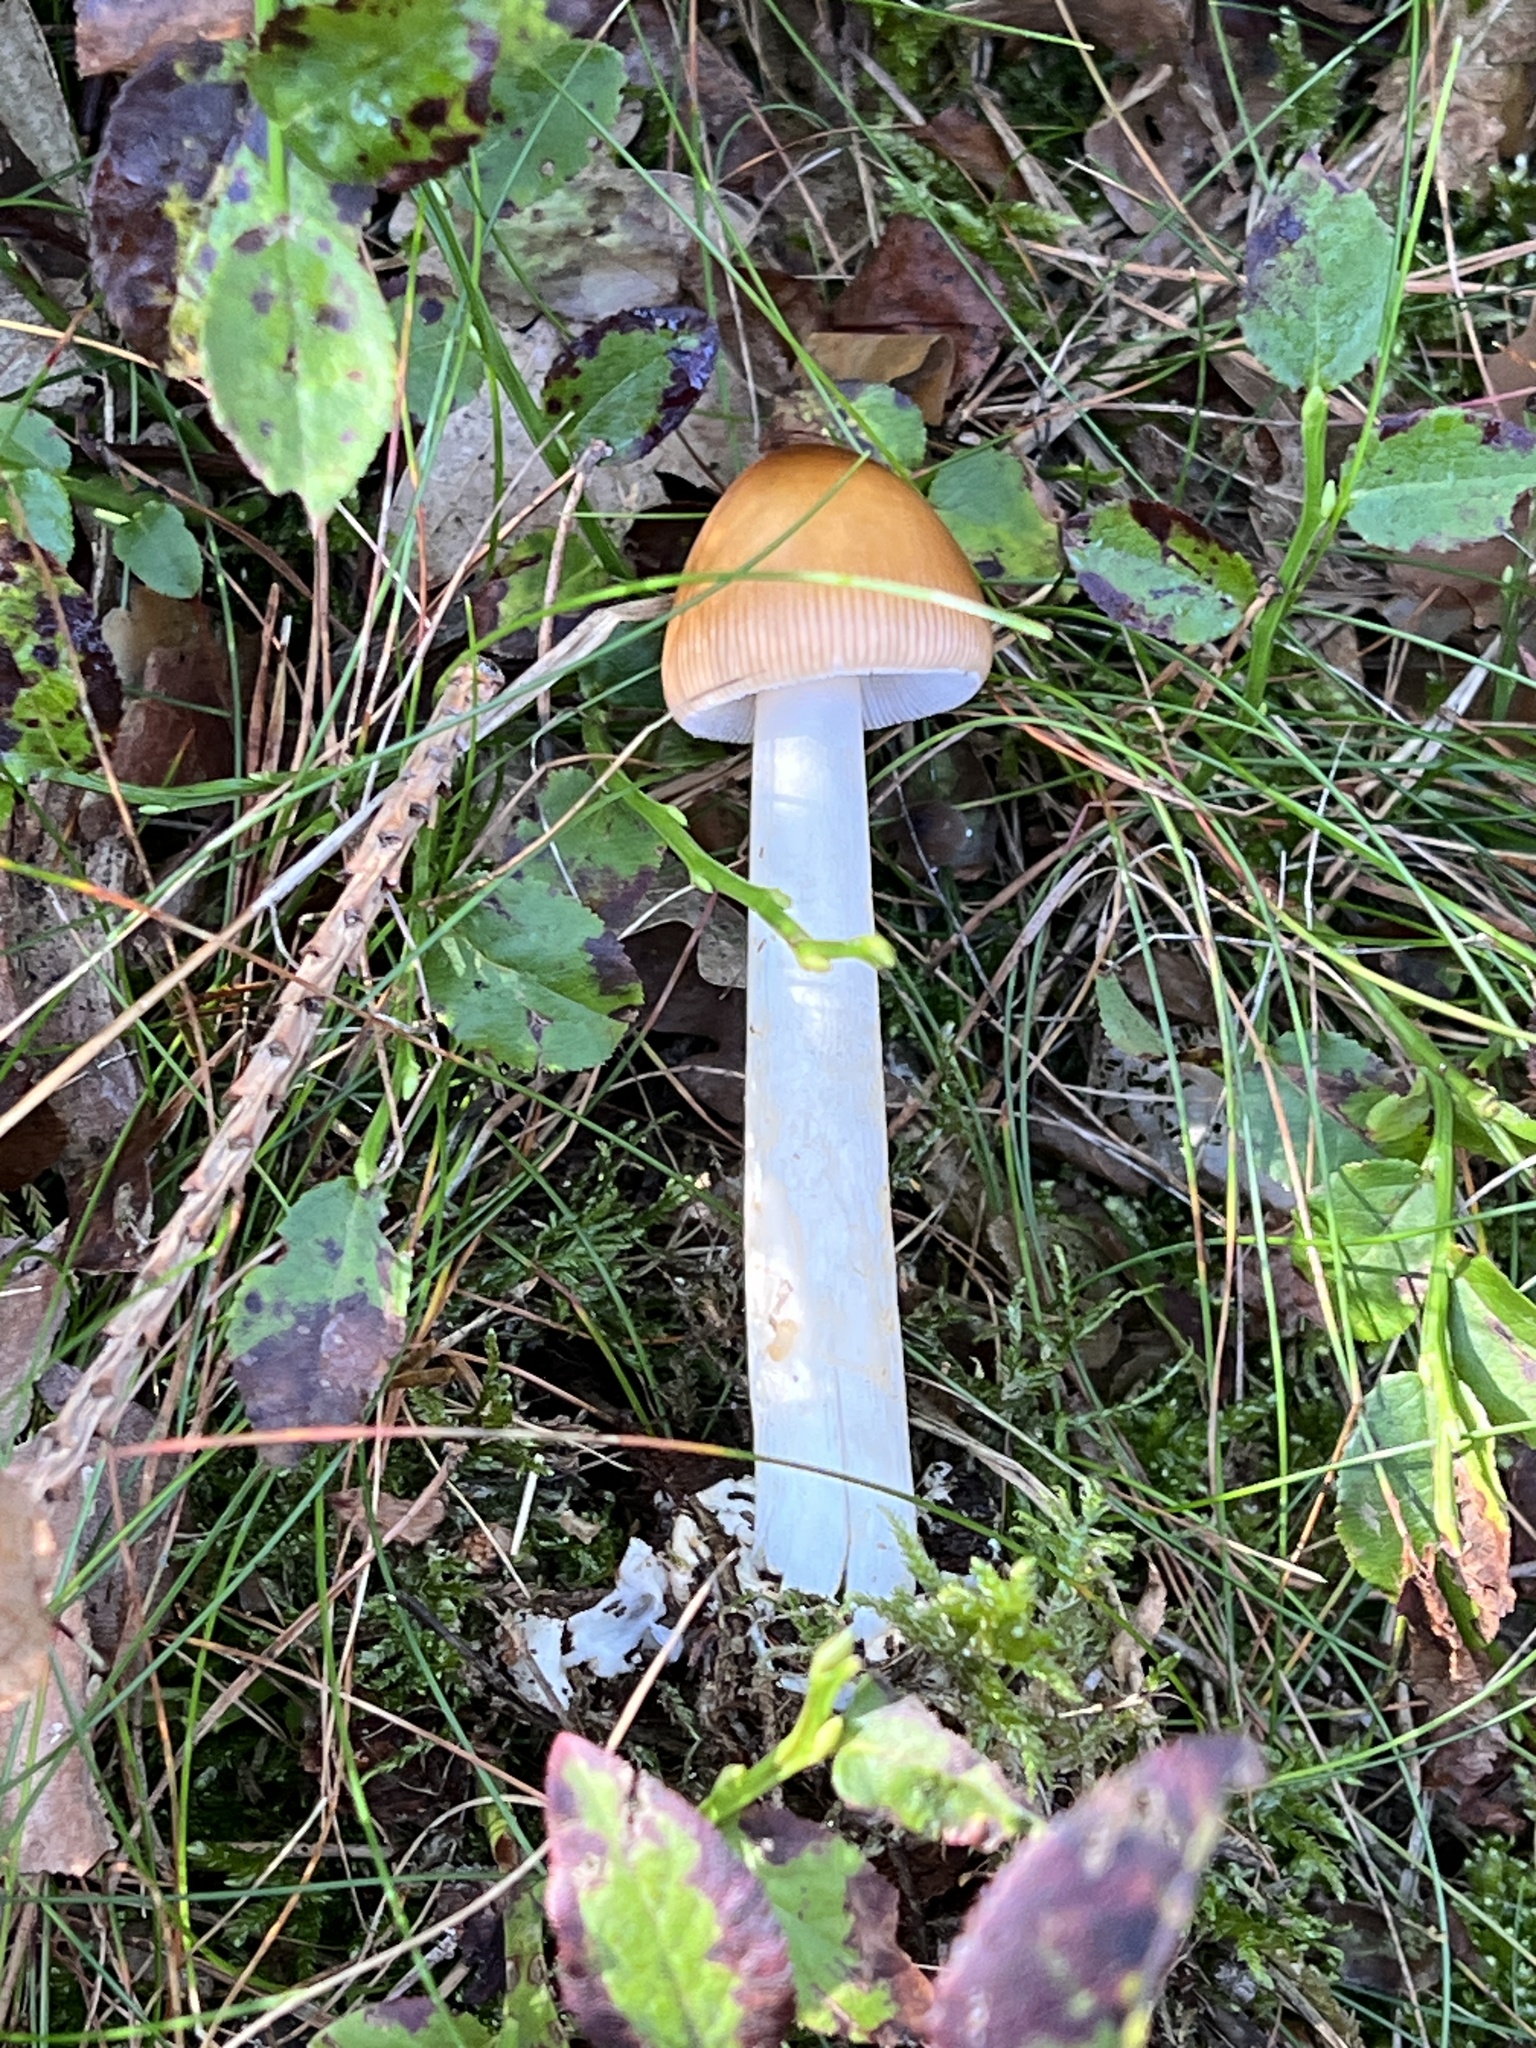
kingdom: Fungi
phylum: Basidiomycota
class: Agaricomycetes
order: Agaricales
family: Amanitaceae
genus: Amanita
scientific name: Amanita fulva
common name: Tawny grisette
